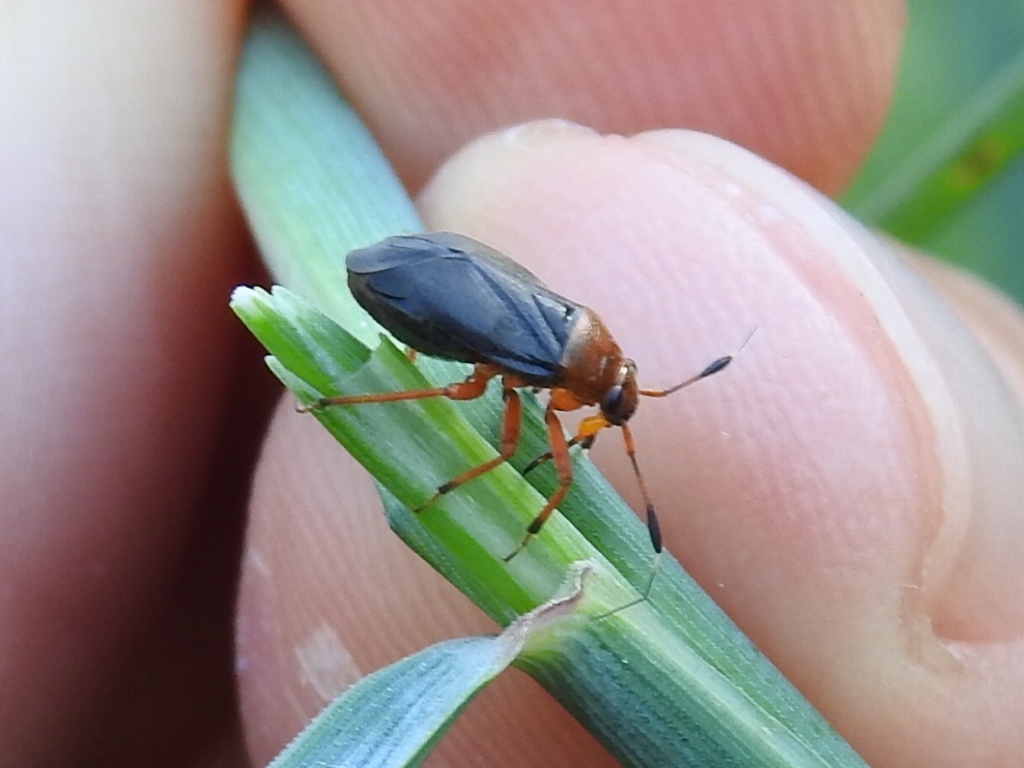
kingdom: Animalia
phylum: Arthropoda
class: Insecta
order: Hemiptera
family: Miridae
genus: Capsus
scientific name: Capsus ater
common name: Black plant bug
